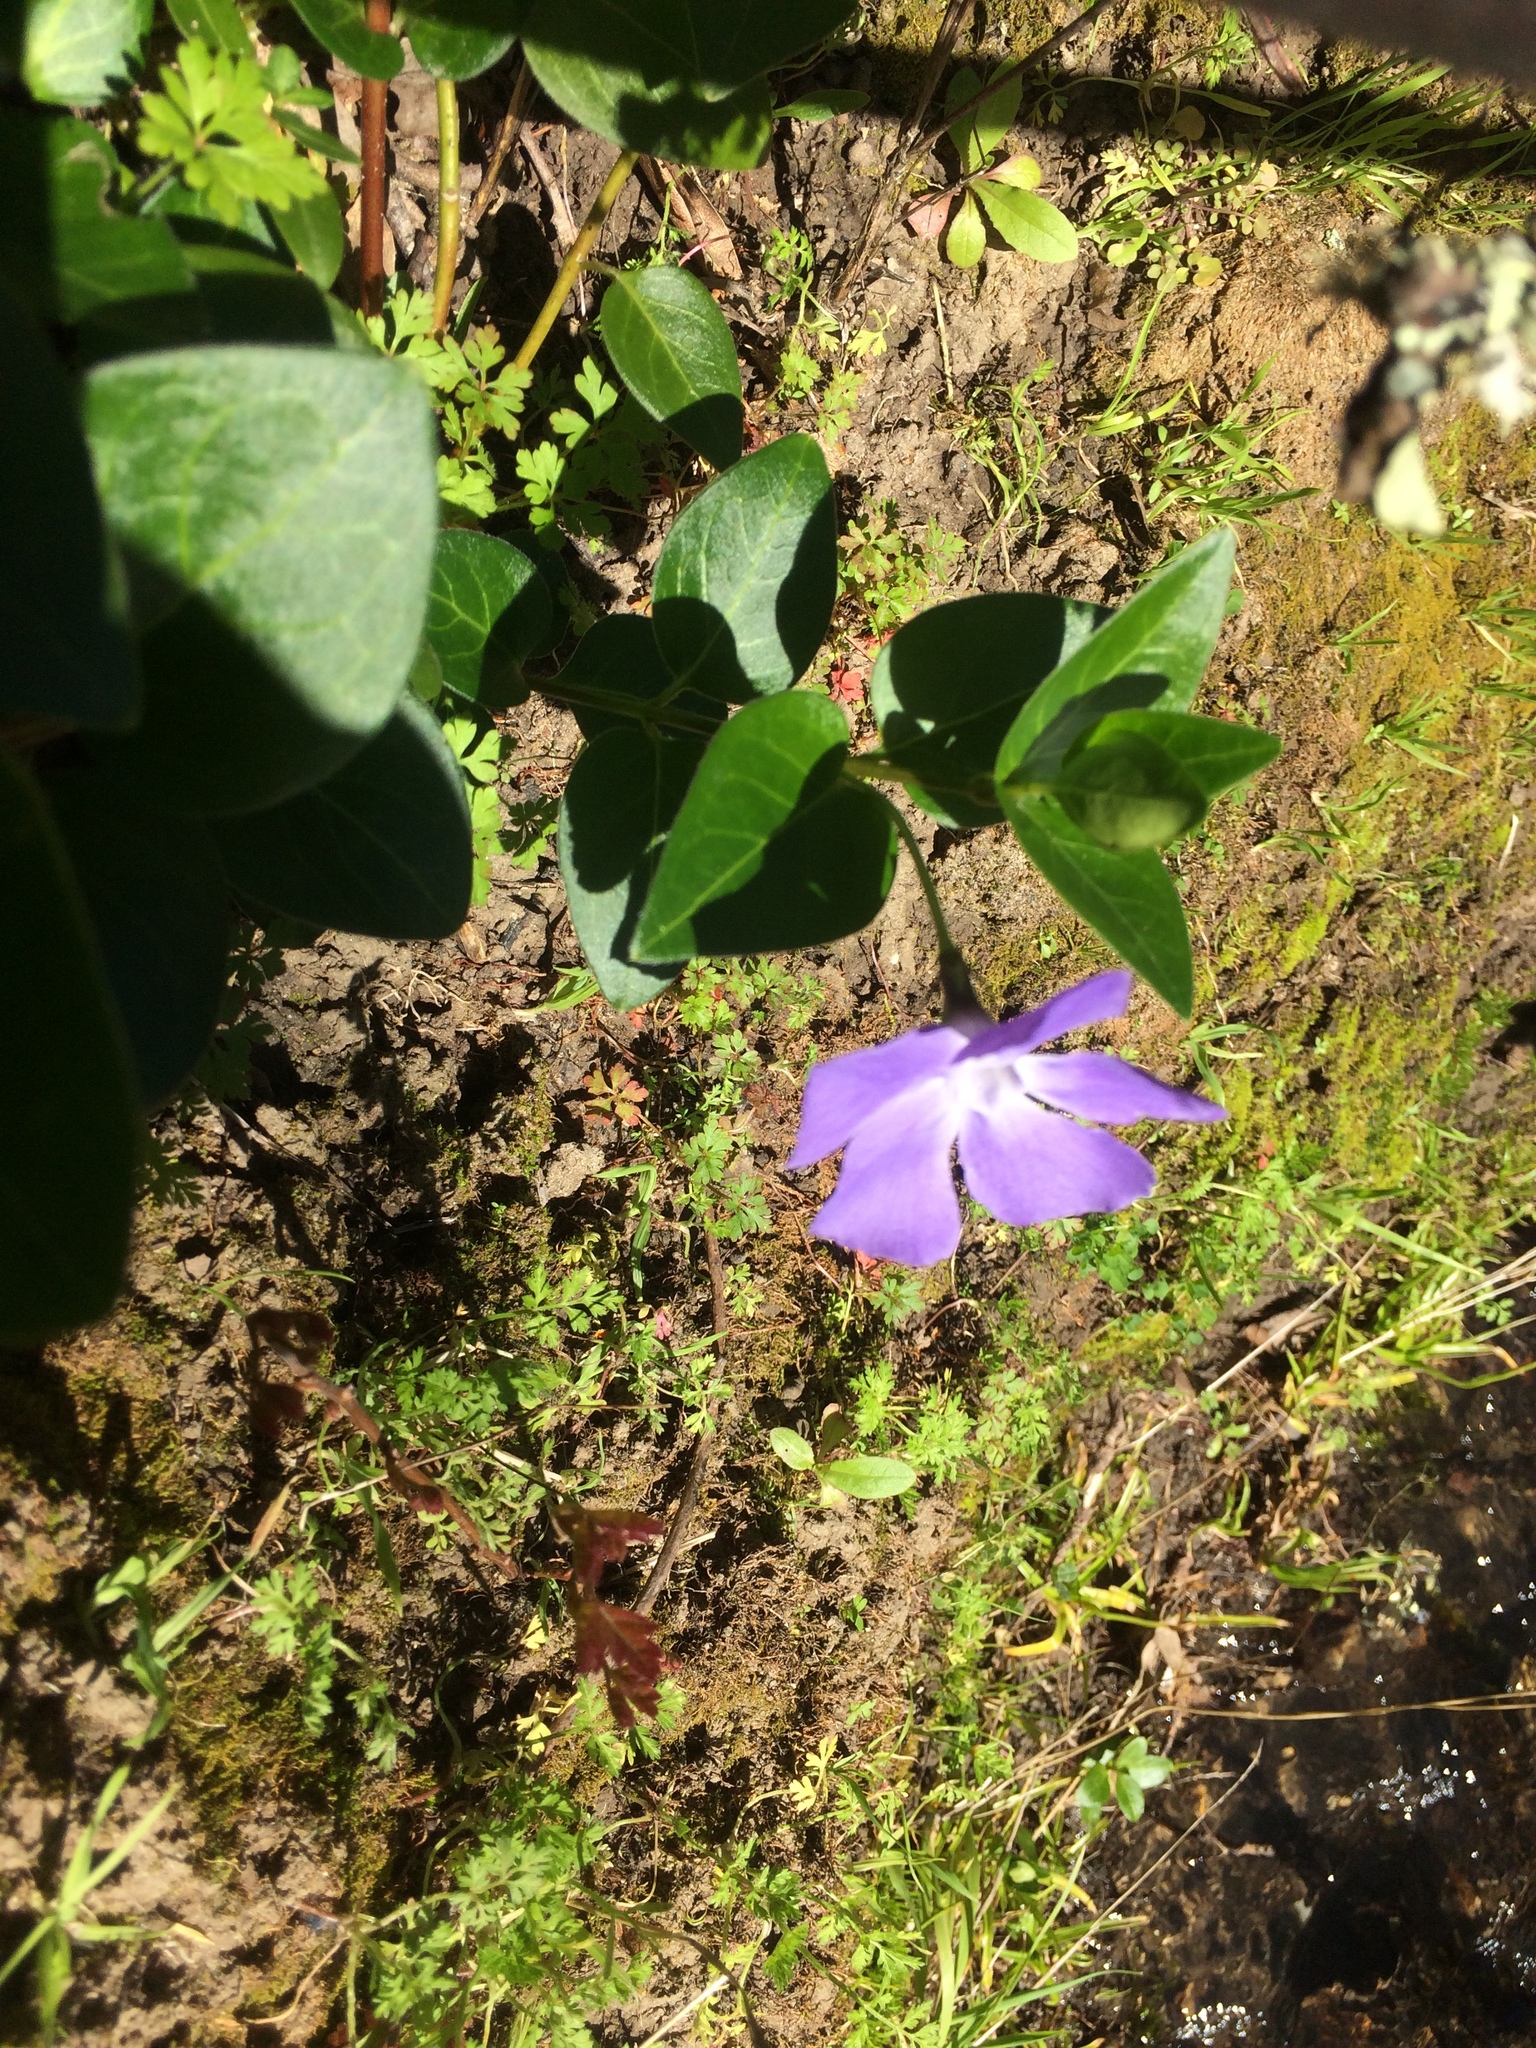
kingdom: Plantae
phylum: Tracheophyta
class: Magnoliopsida
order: Gentianales
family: Apocynaceae
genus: Vinca
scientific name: Vinca major
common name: Greater periwinkle
